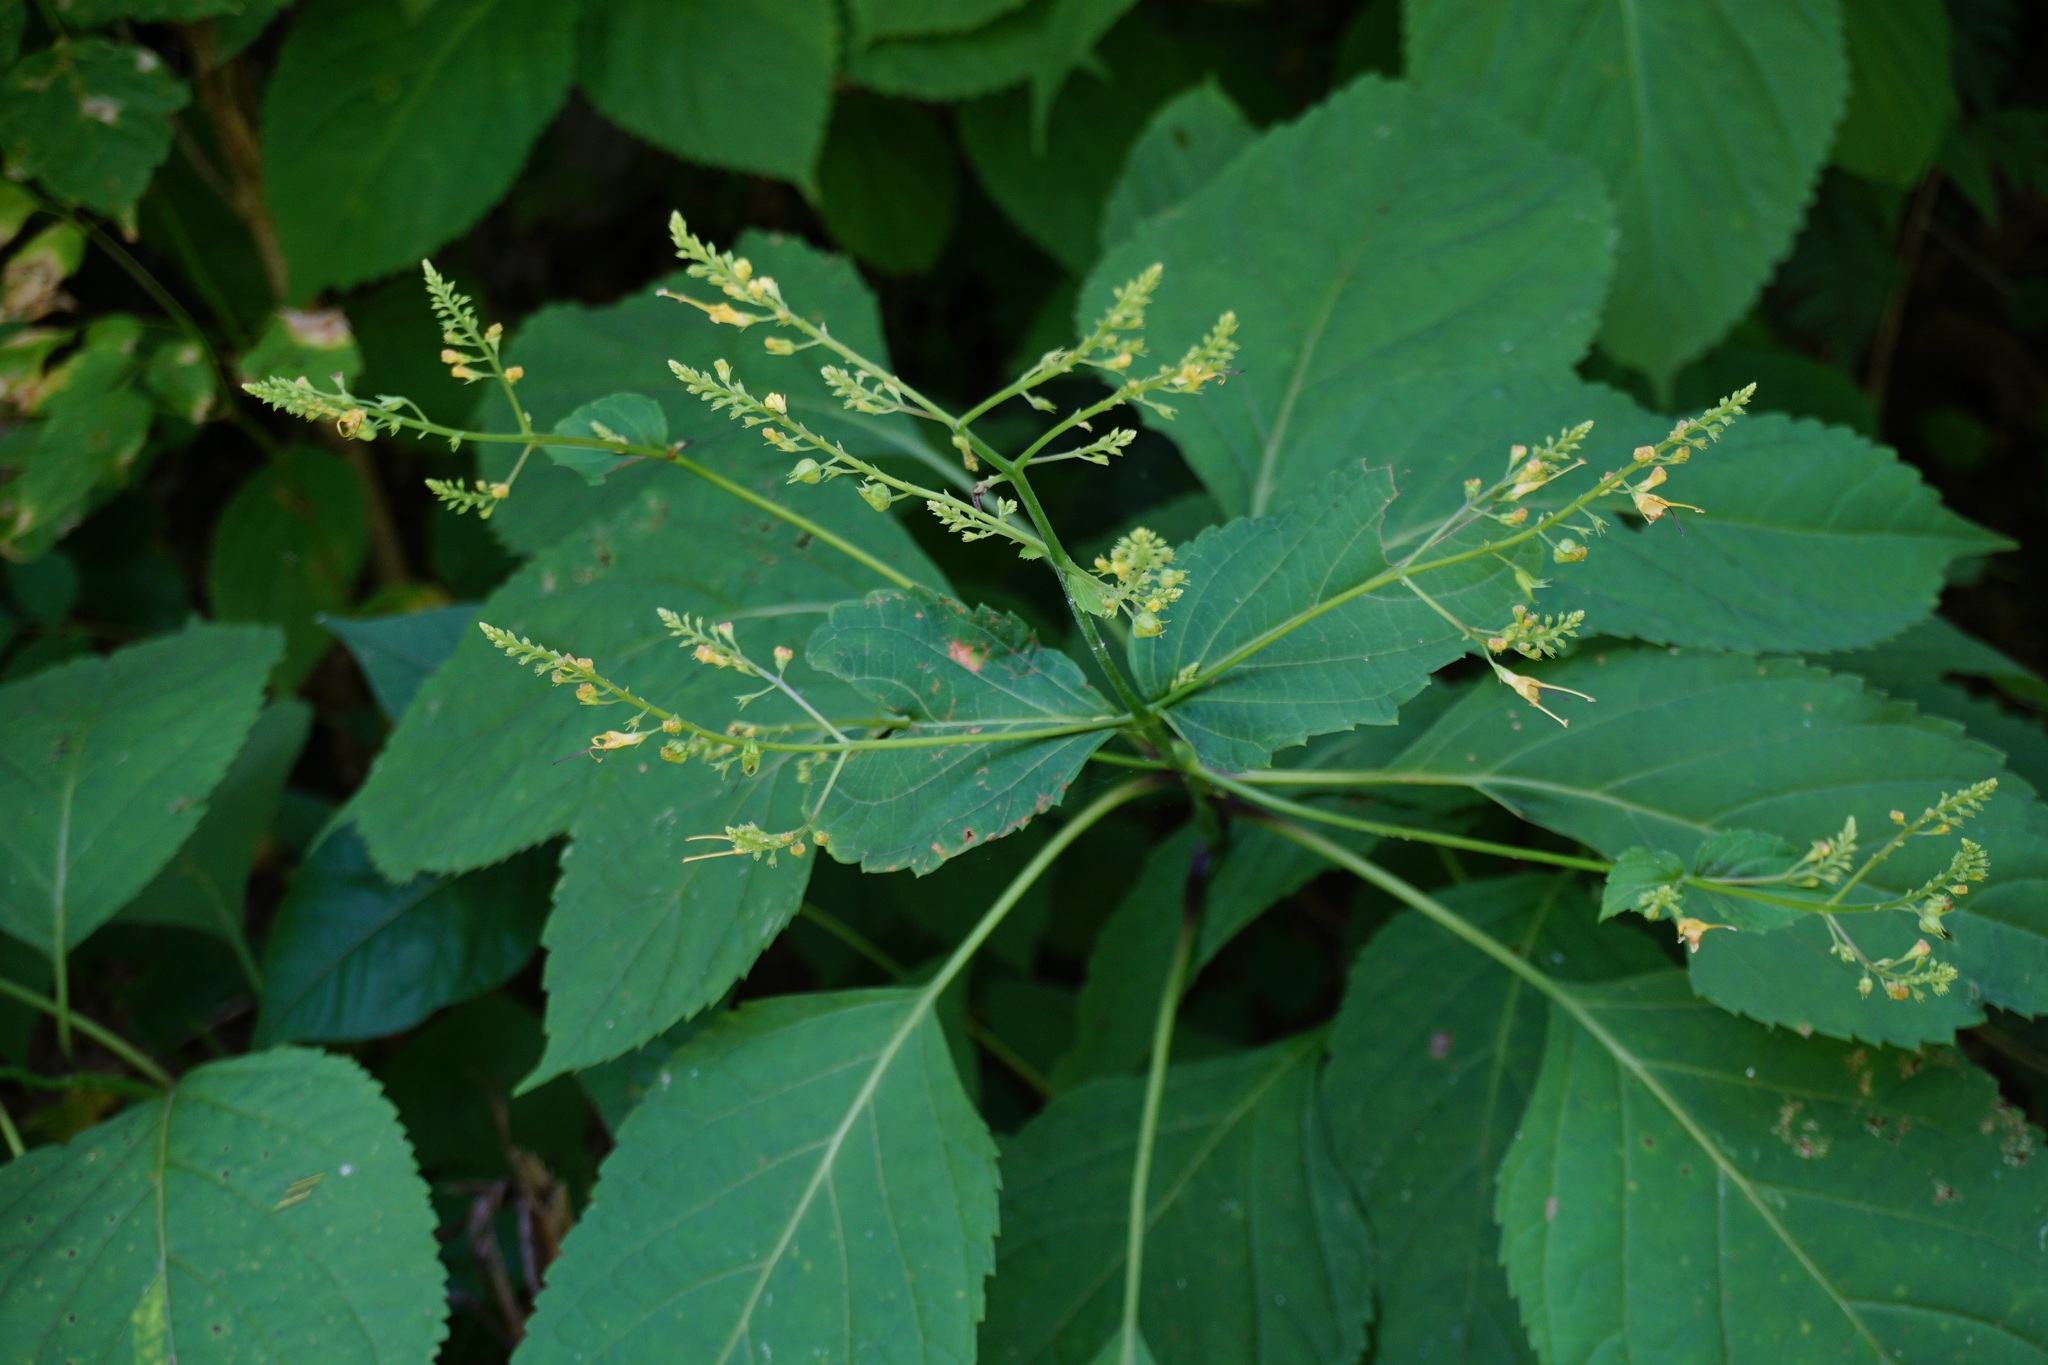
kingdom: Plantae
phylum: Tracheophyta
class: Magnoliopsida
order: Lamiales
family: Lamiaceae
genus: Collinsonia
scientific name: Collinsonia canadensis
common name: Northern horsebalm
